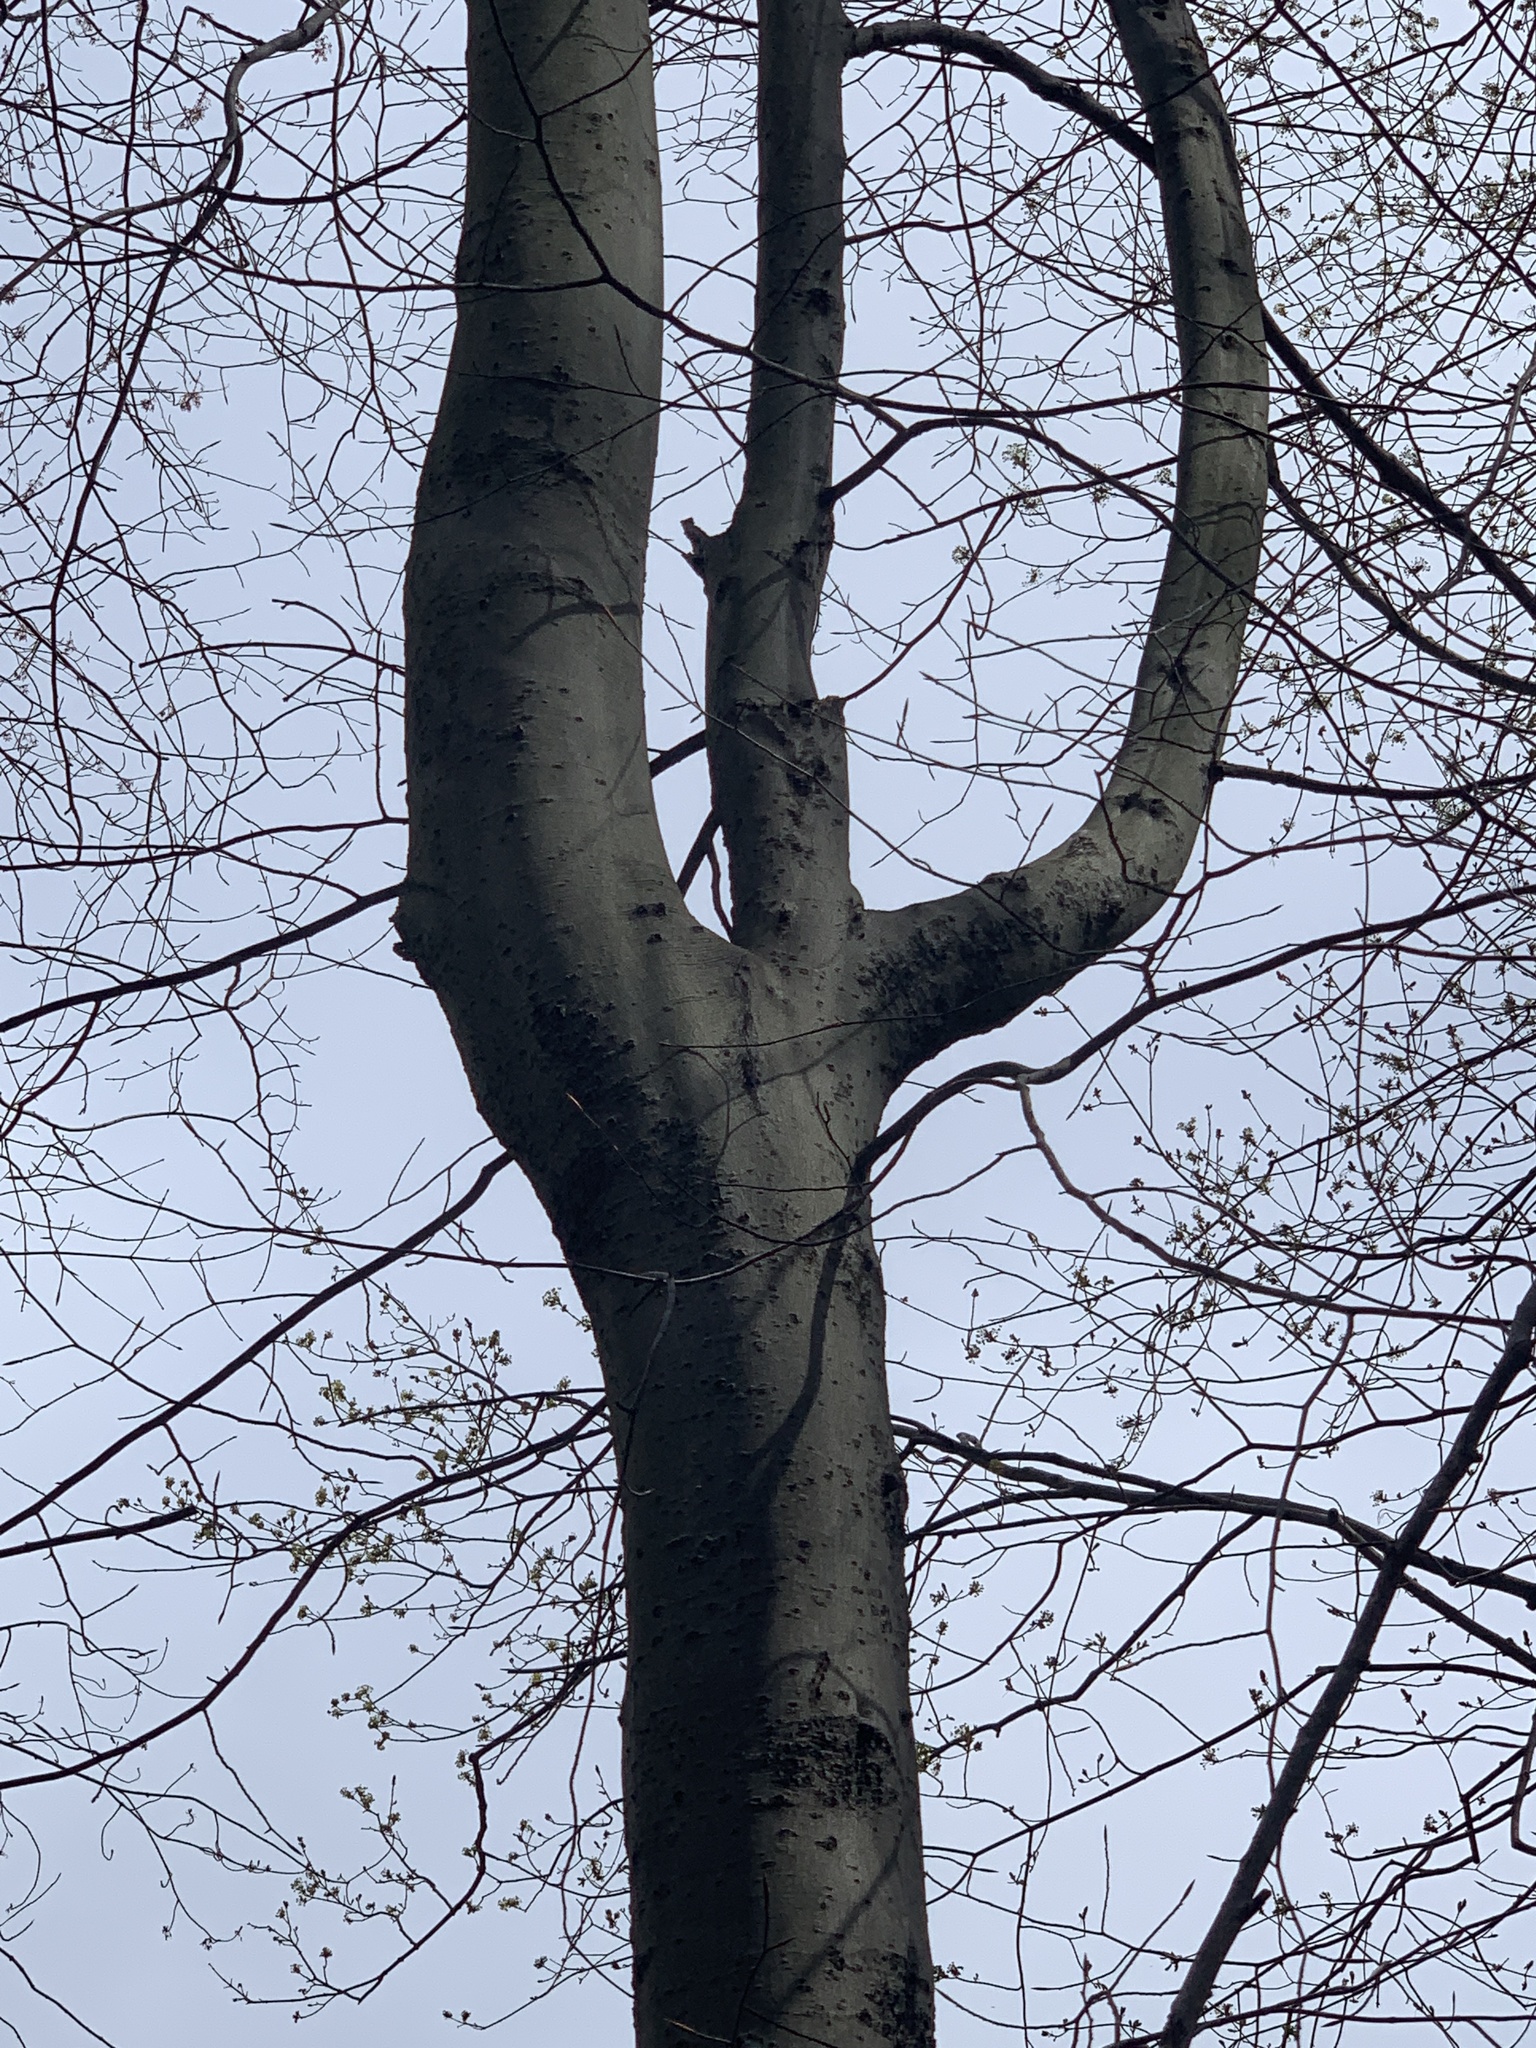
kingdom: Plantae
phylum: Tracheophyta
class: Magnoliopsida
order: Fagales
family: Fagaceae
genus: Fagus
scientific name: Fagus grandifolia
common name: American beech
